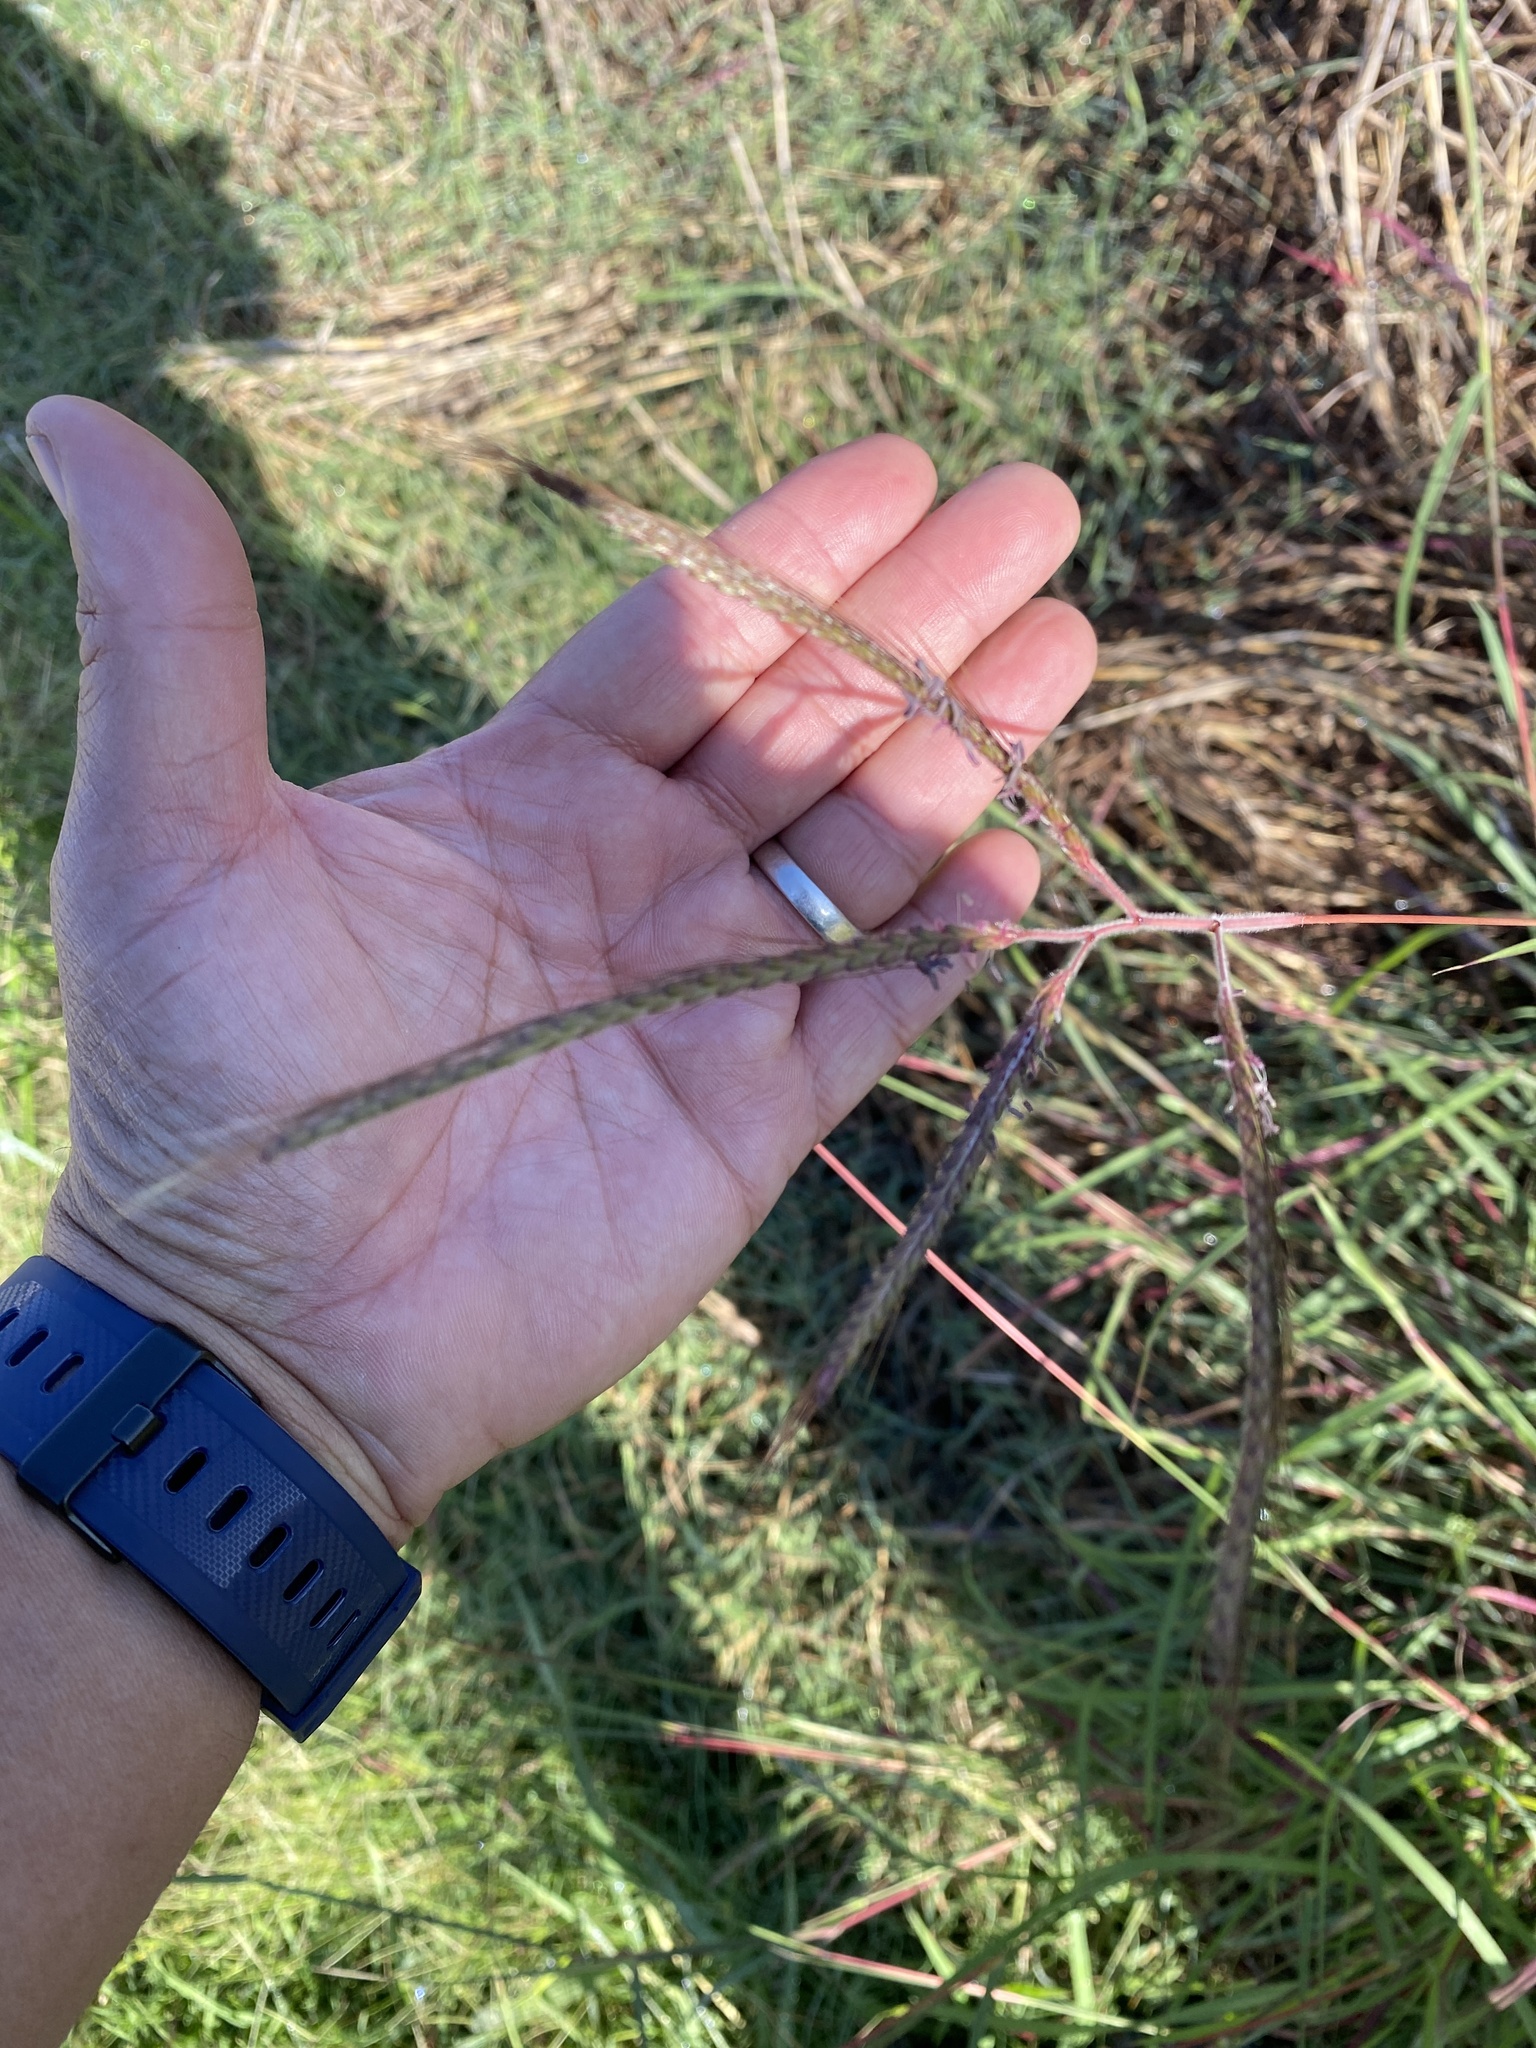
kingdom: Plantae
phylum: Tracheophyta
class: Liliopsida
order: Poales
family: Poaceae
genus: Dichanthium
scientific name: Dichanthium aristatum
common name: Angleton bluestem
